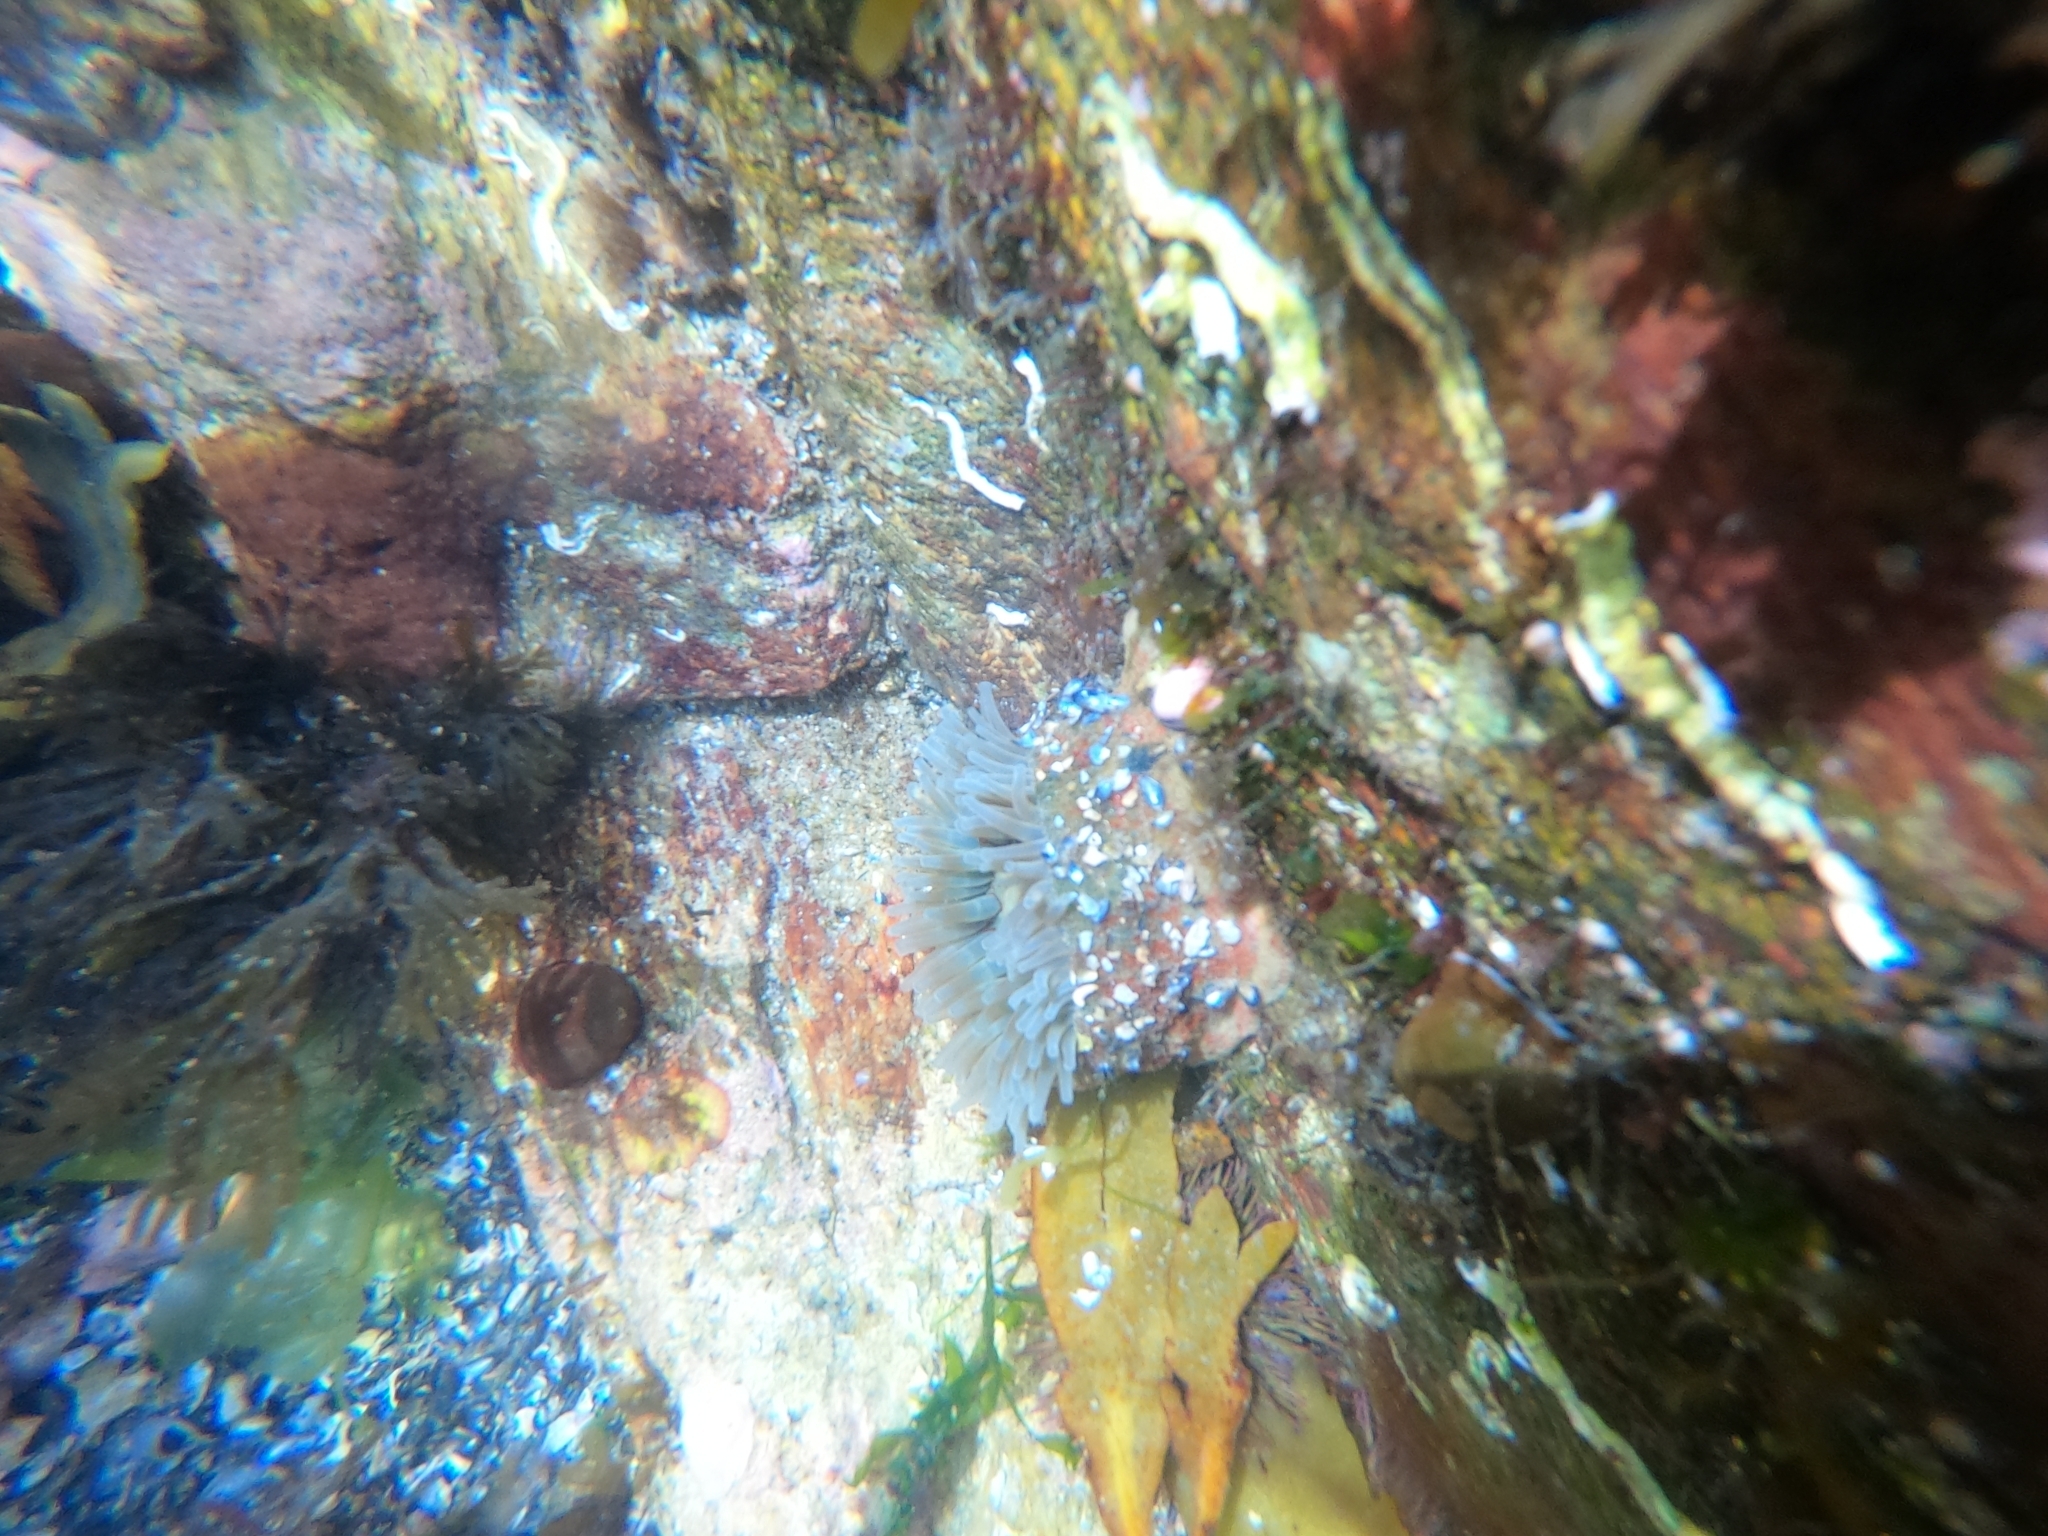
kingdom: Animalia
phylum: Cnidaria
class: Anthozoa
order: Actiniaria
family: Actiniidae
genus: Urticina
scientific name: Urticina felina
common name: Dahlia anemone
